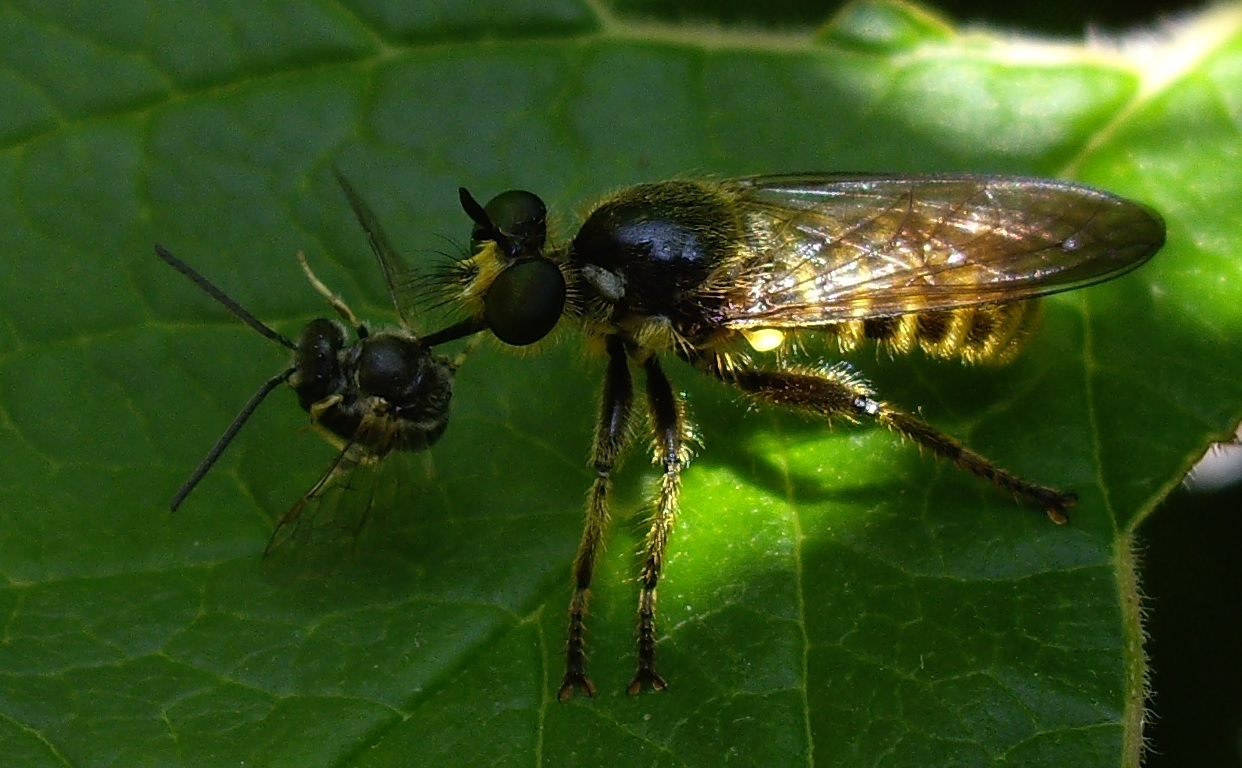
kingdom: Animalia
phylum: Arthropoda
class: Insecta
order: Diptera
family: Asilidae
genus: Lamyra
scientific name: Lamyra fimbriata
